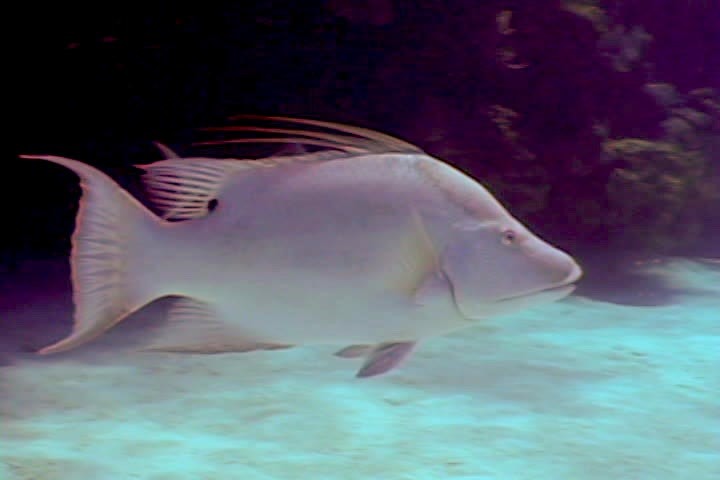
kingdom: Animalia
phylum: Chordata
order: Perciformes
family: Labridae
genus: Lachnolaimus
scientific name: Lachnolaimus maximus
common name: Hogfish
